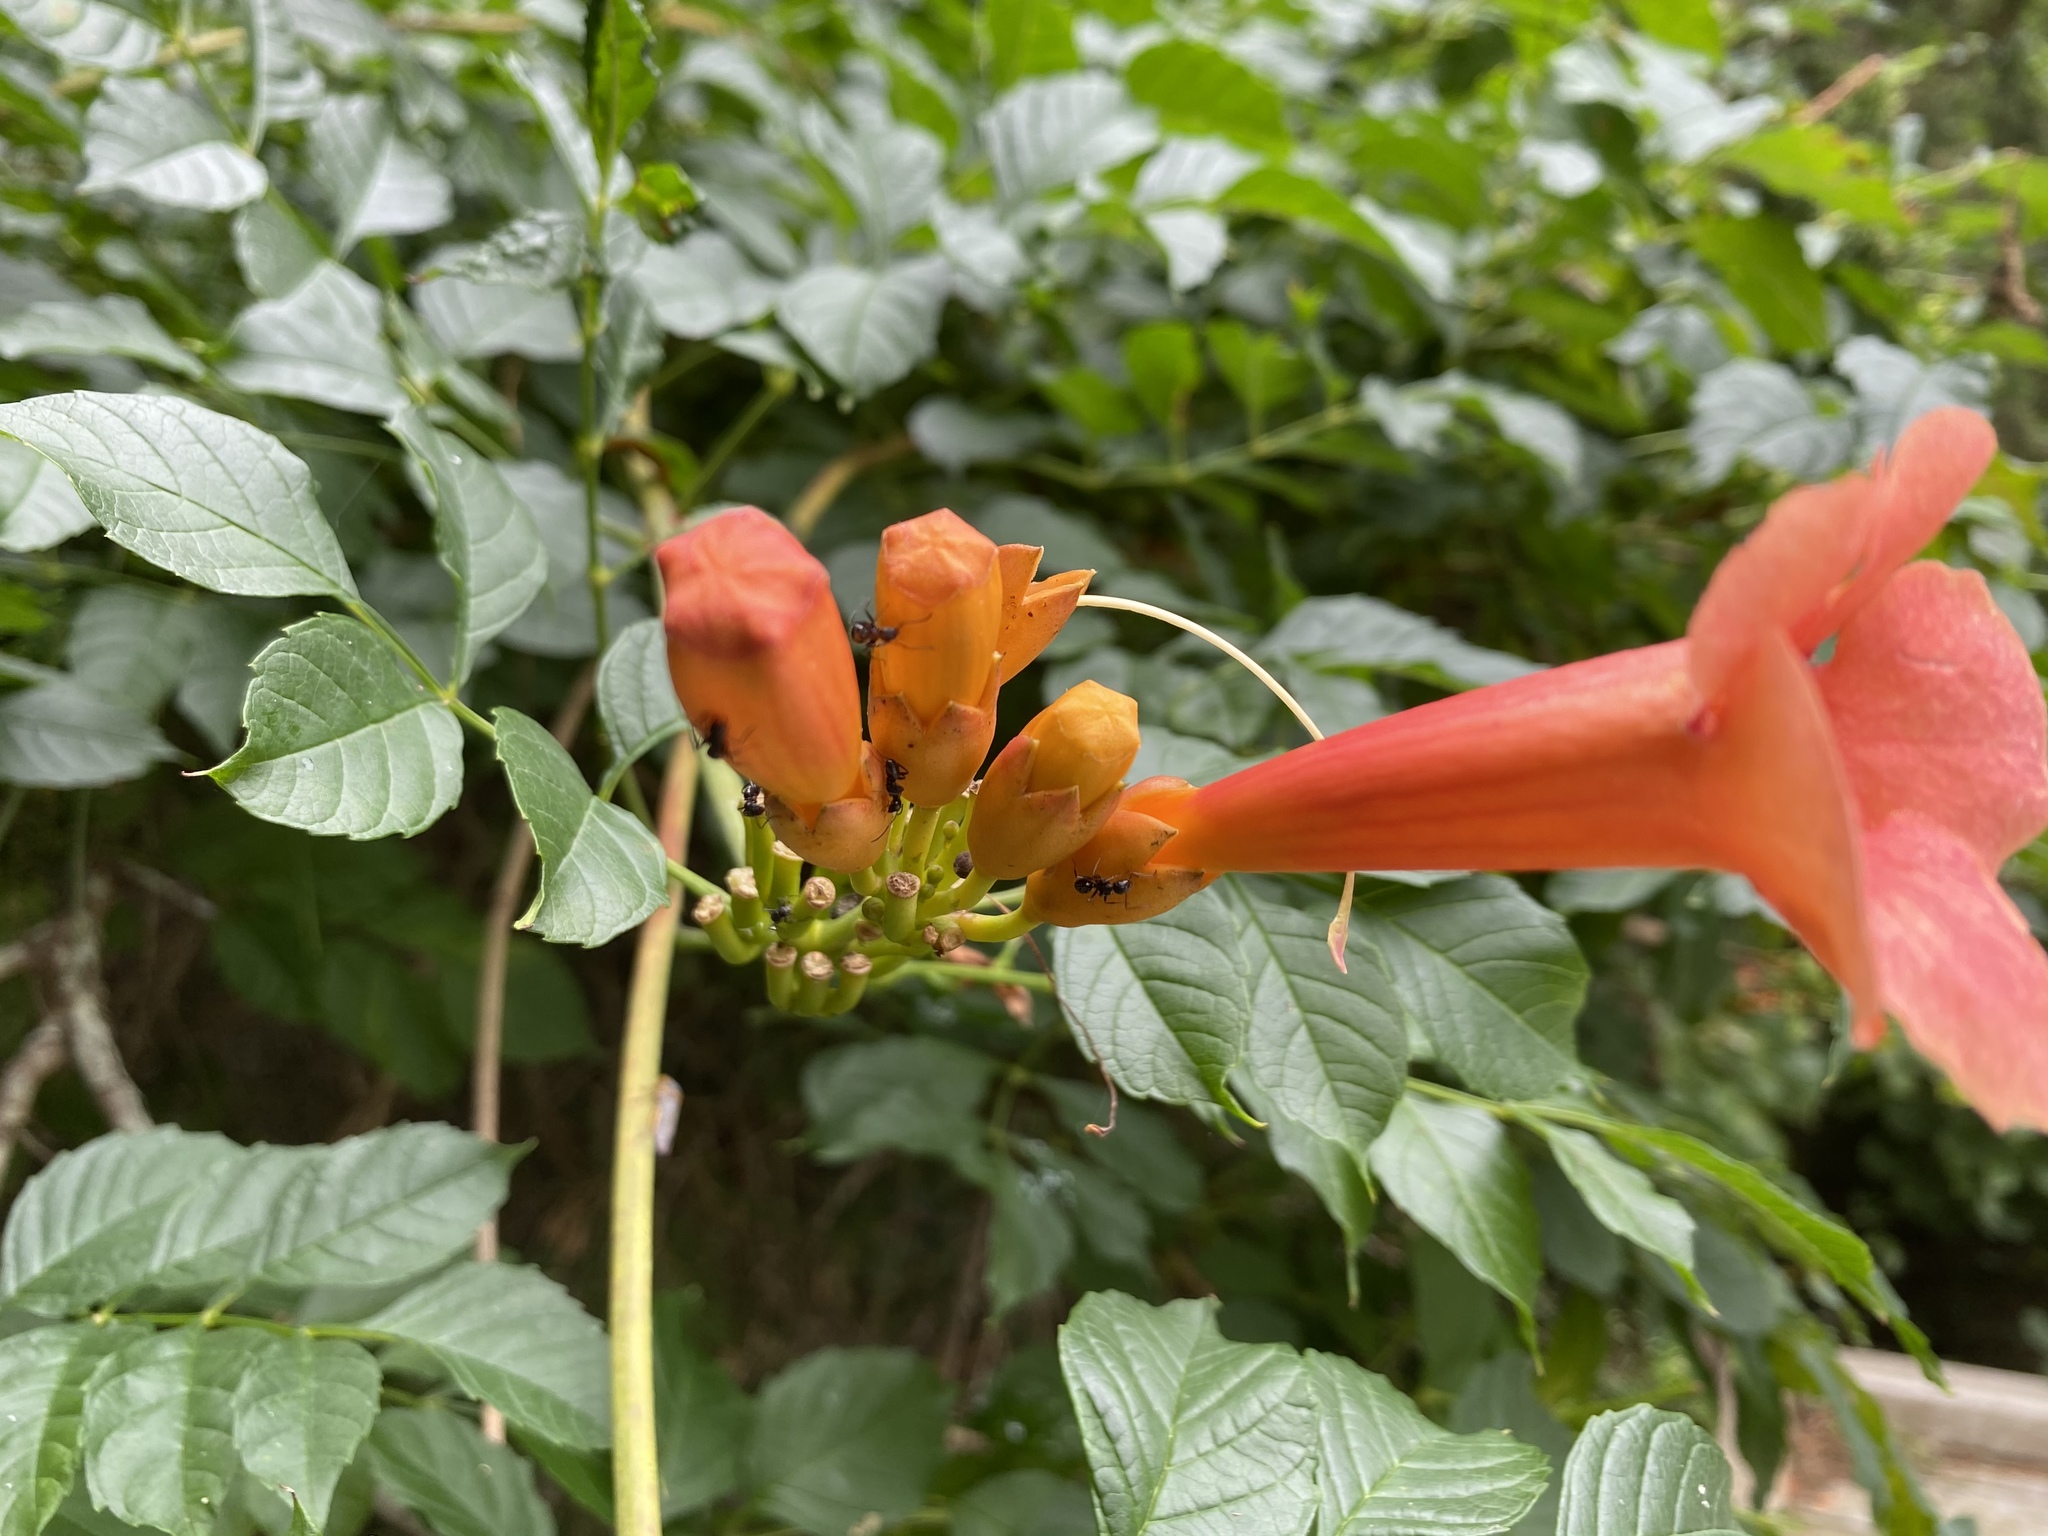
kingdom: Plantae
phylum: Tracheophyta
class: Magnoliopsida
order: Lamiales
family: Bignoniaceae
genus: Campsis
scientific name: Campsis radicans
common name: Trumpet-creeper
